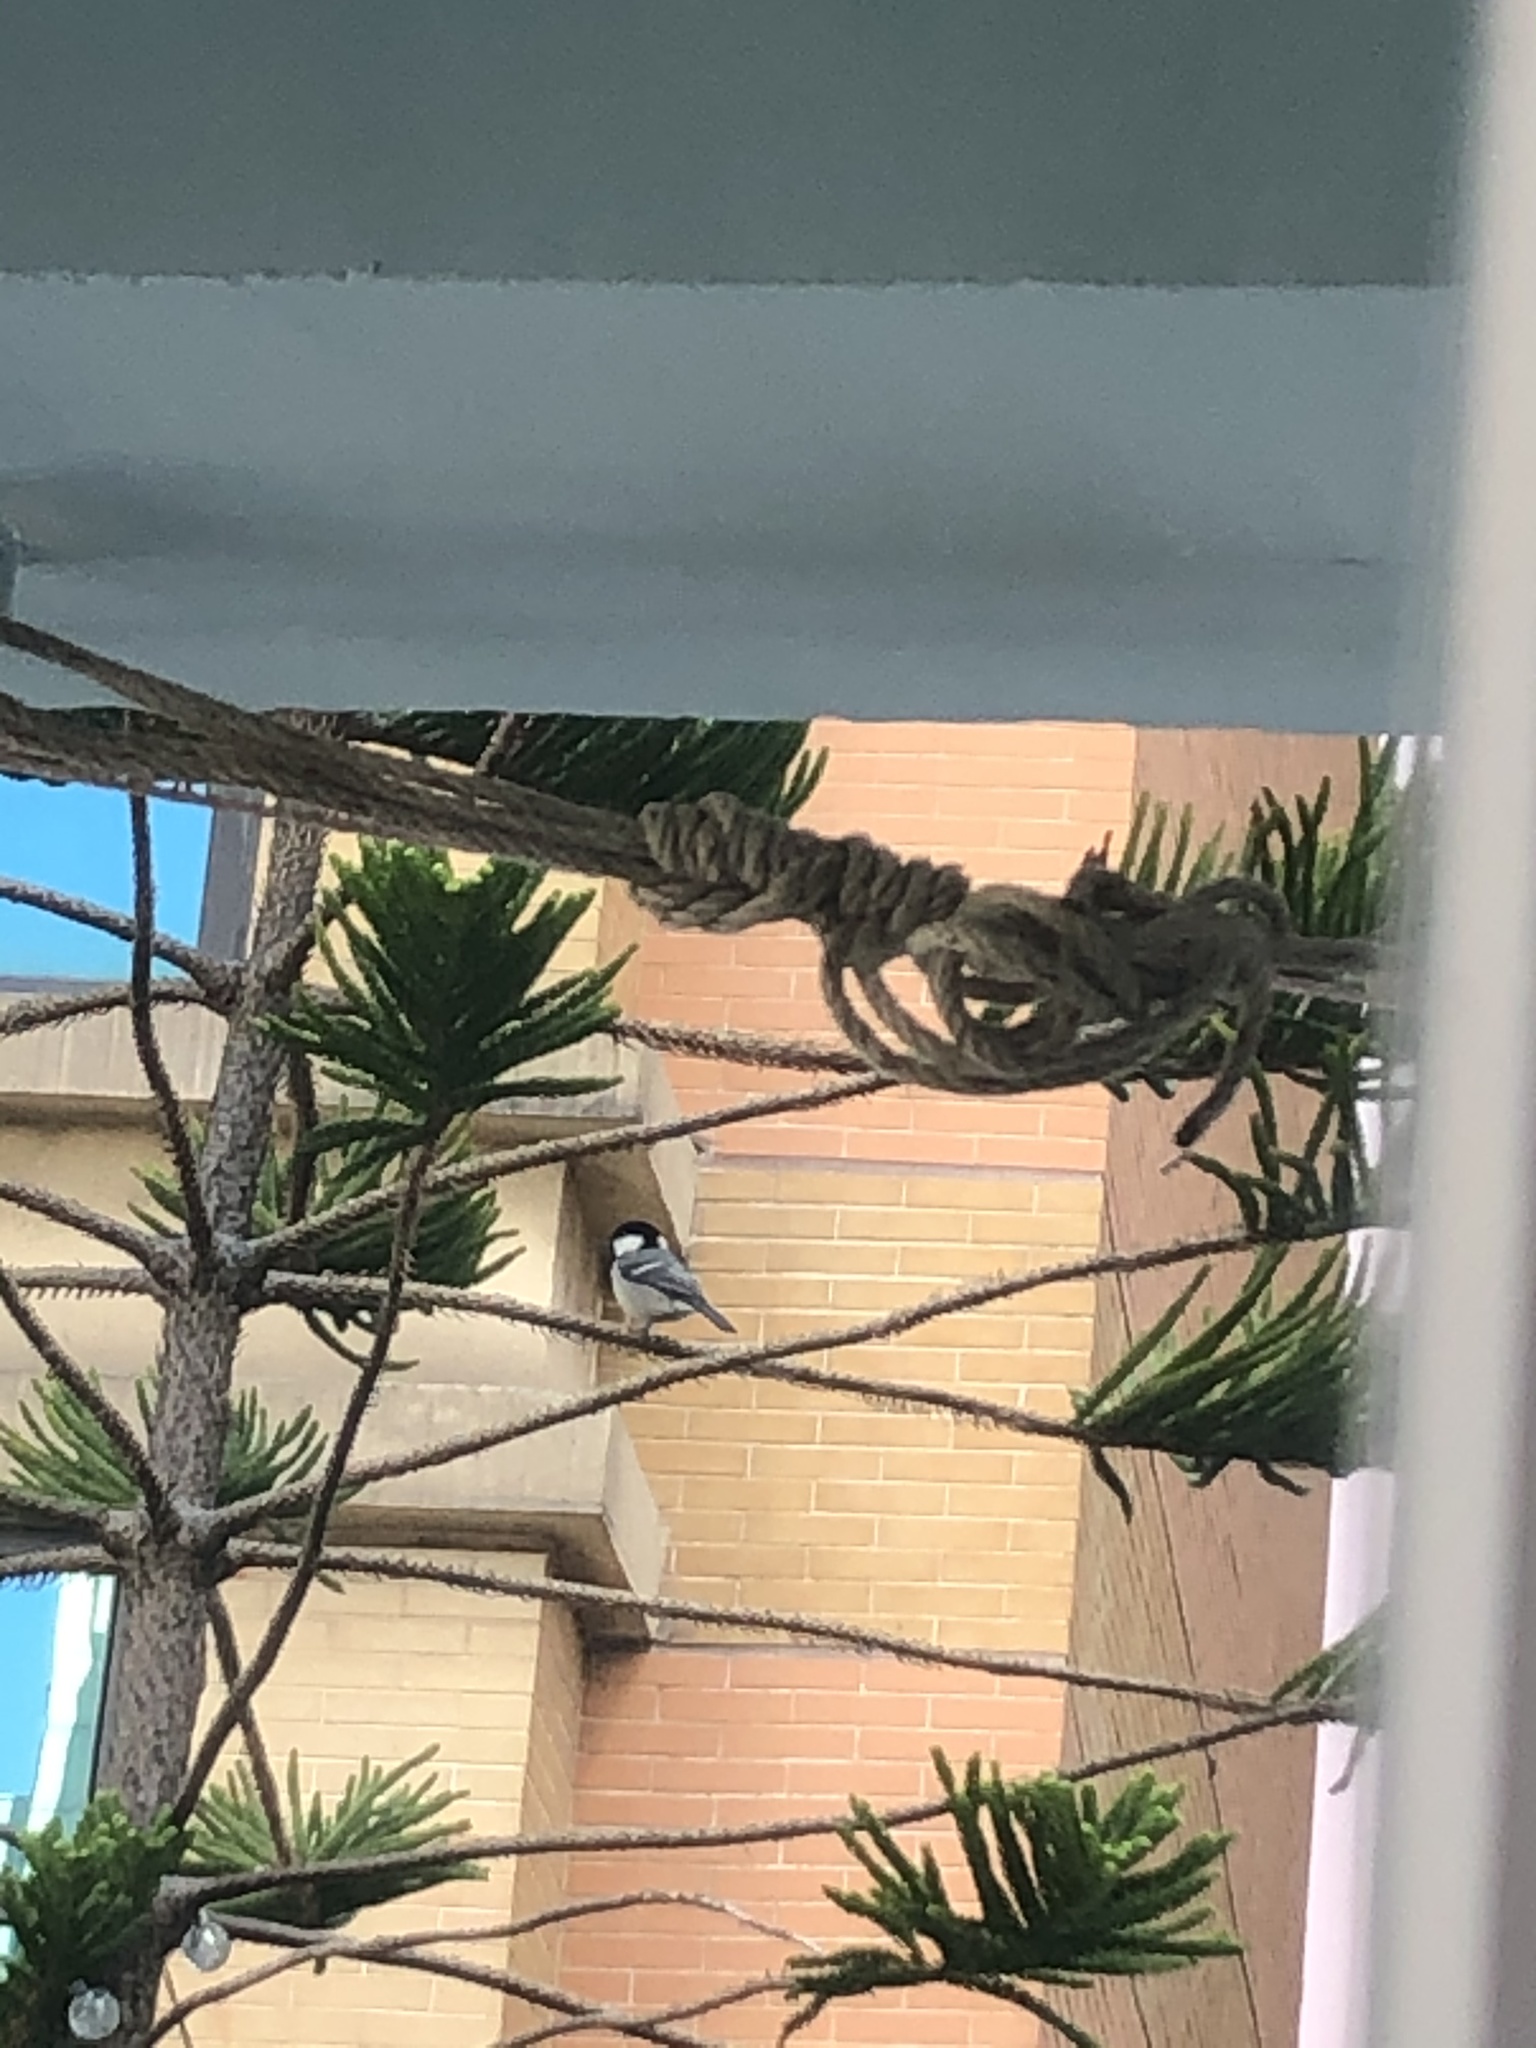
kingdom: Animalia
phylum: Chordata
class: Aves
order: Passeriformes
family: Paridae
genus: Parus
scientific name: Parus minor
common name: Japanese tit
